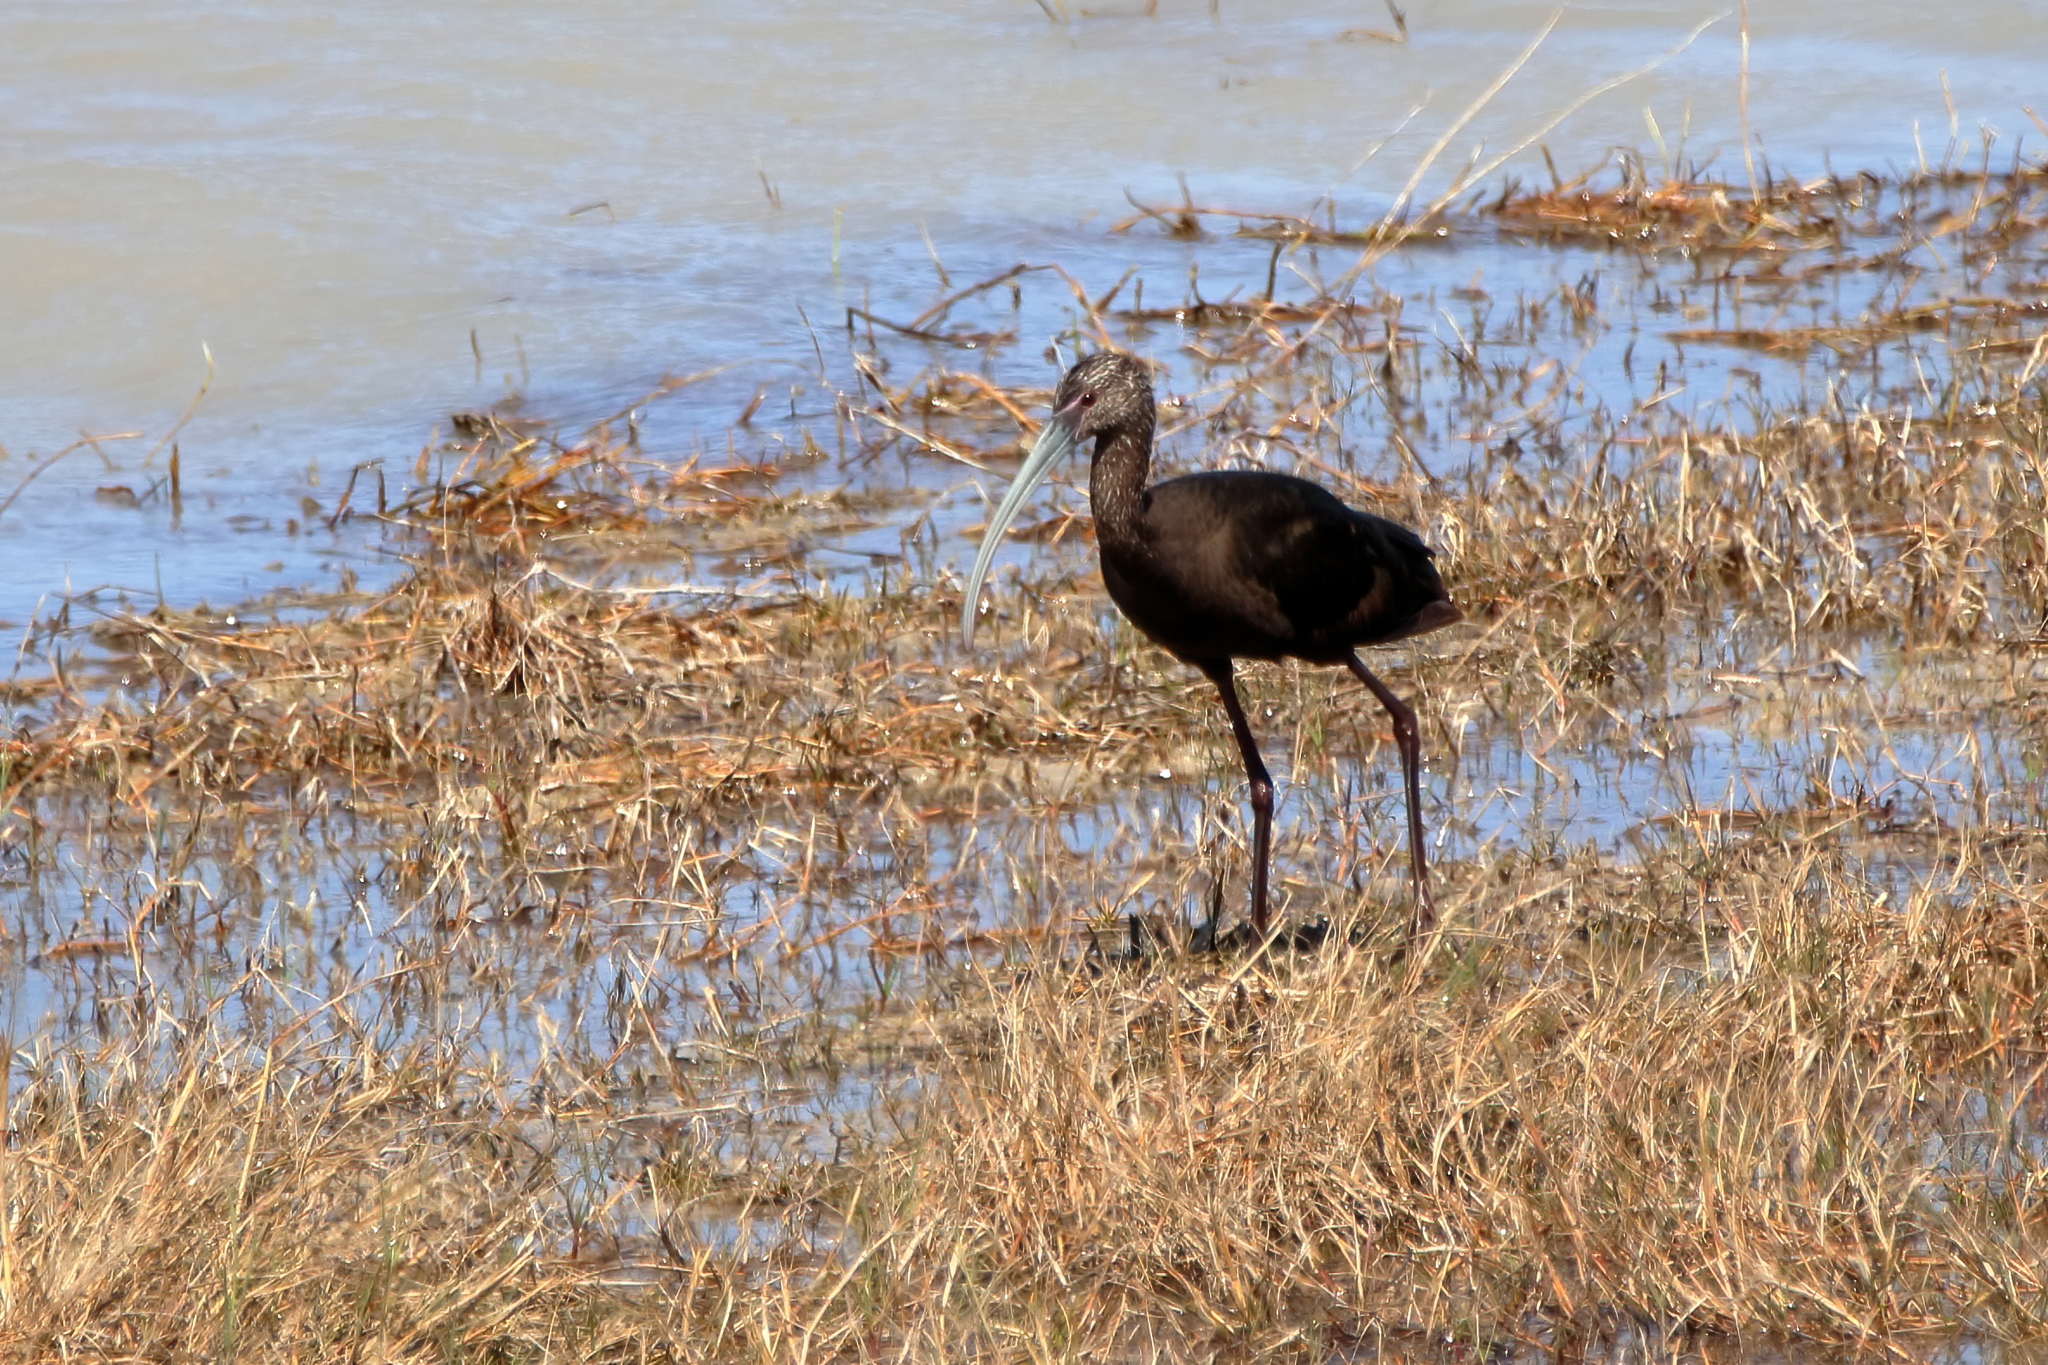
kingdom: Animalia
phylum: Chordata
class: Aves
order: Pelecaniformes
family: Threskiornithidae
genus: Plegadis
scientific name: Plegadis chihi
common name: White-faced ibis
